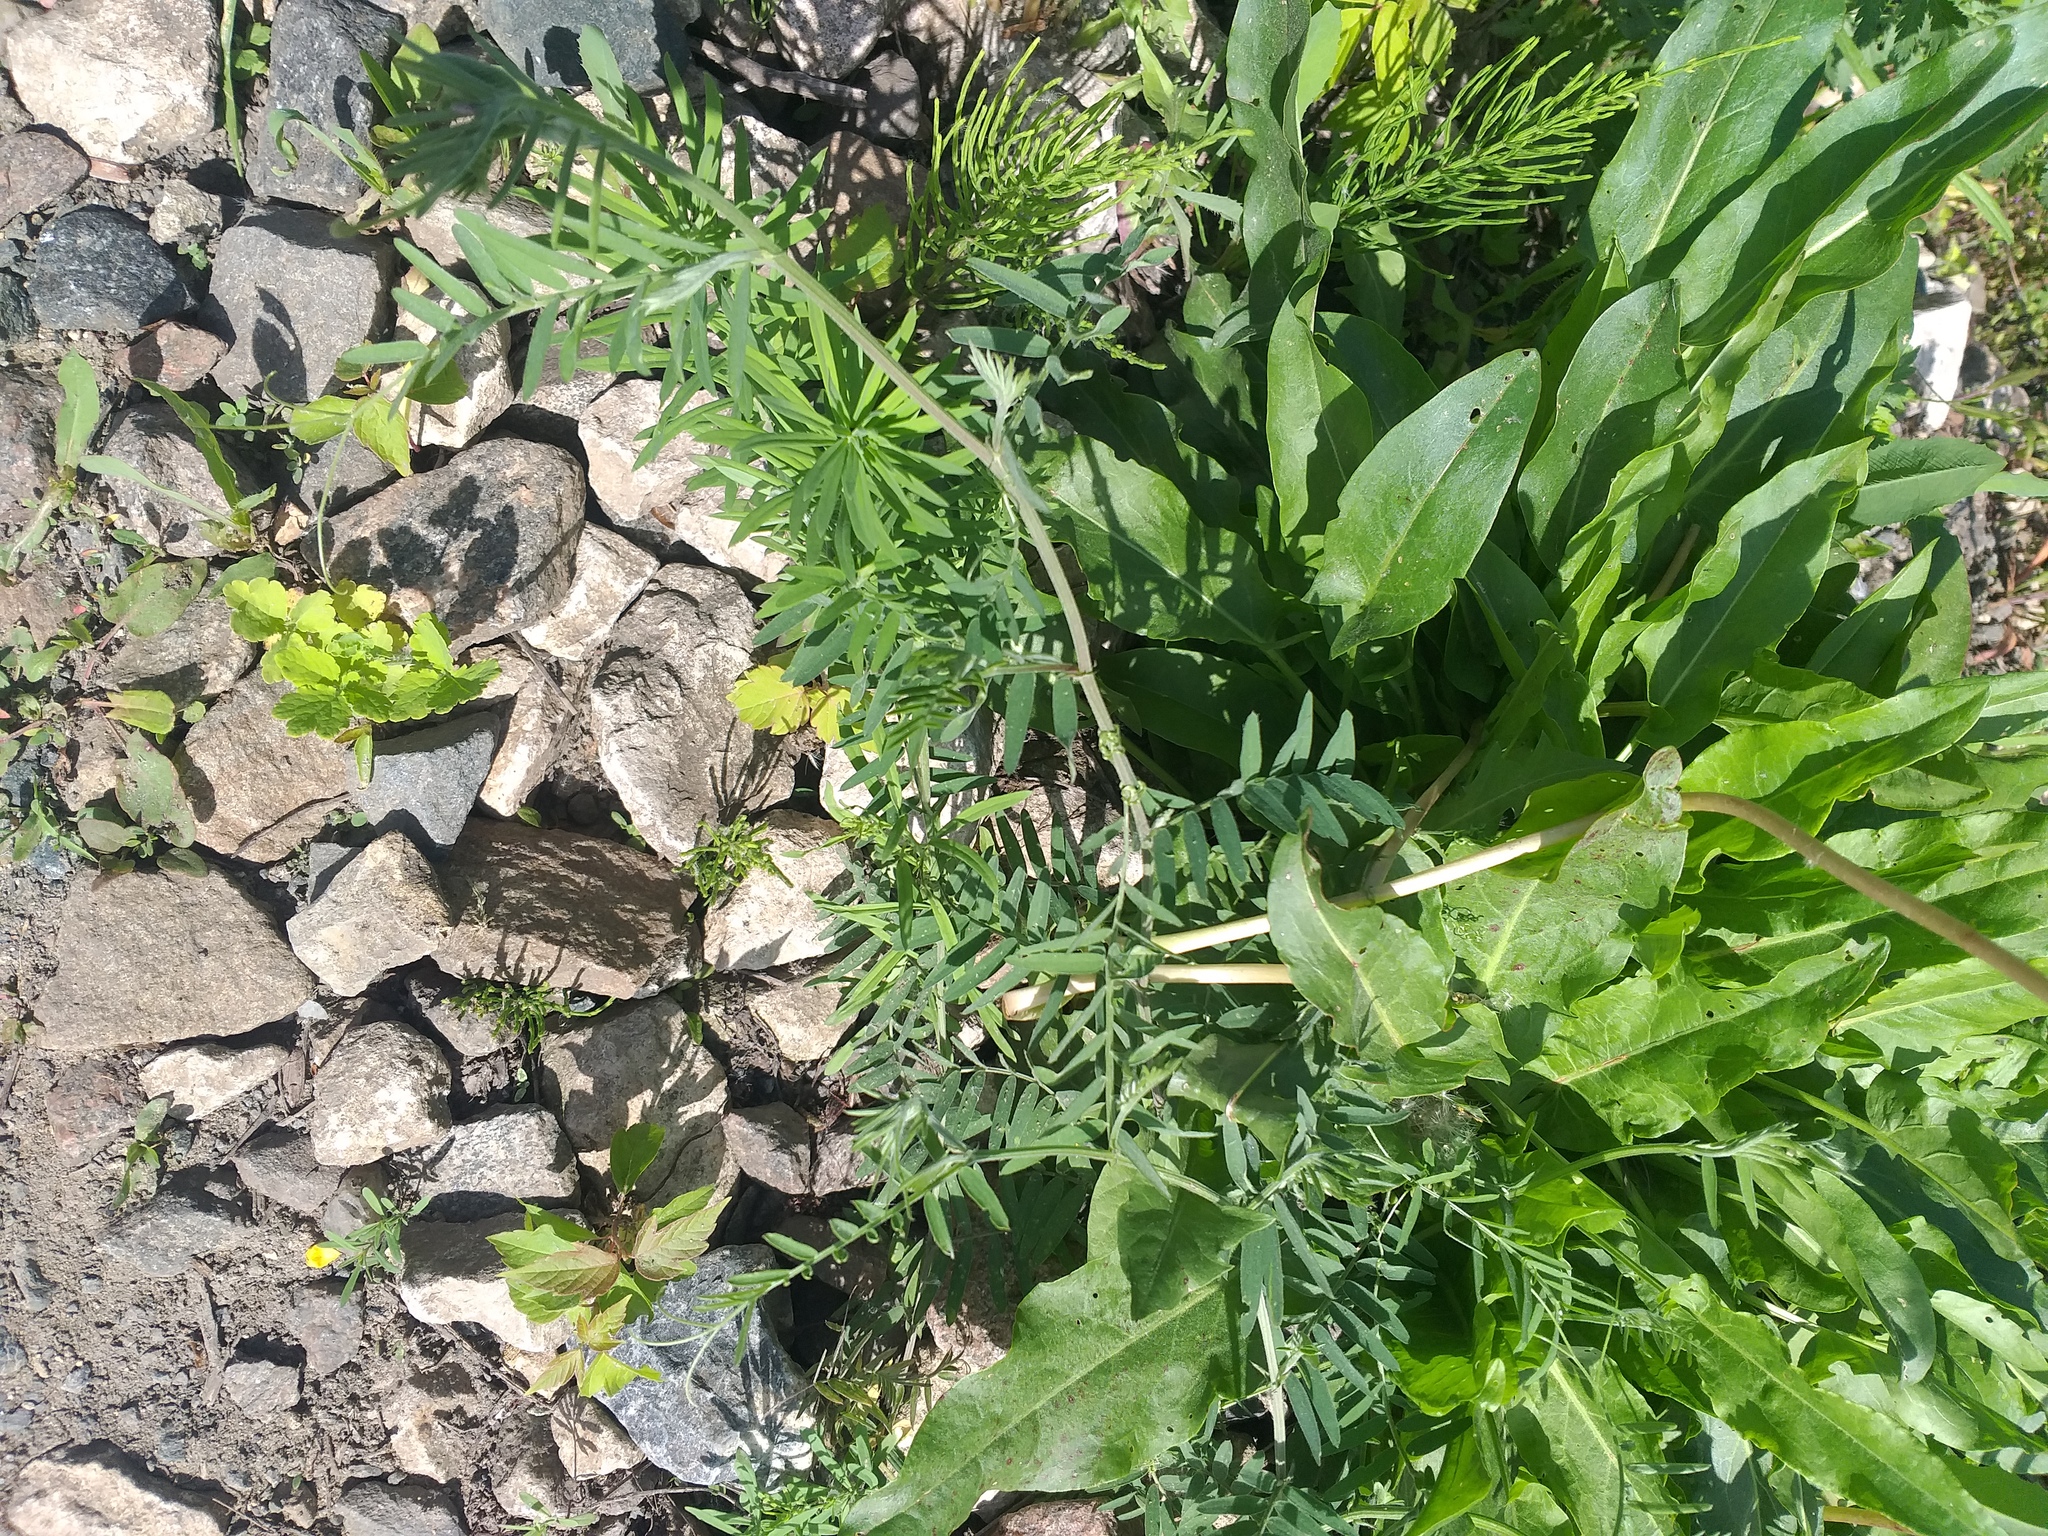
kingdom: Plantae
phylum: Tracheophyta
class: Magnoliopsida
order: Fabales
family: Fabaceae
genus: Vicia
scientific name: Vicia cracca
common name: Bird vetch
